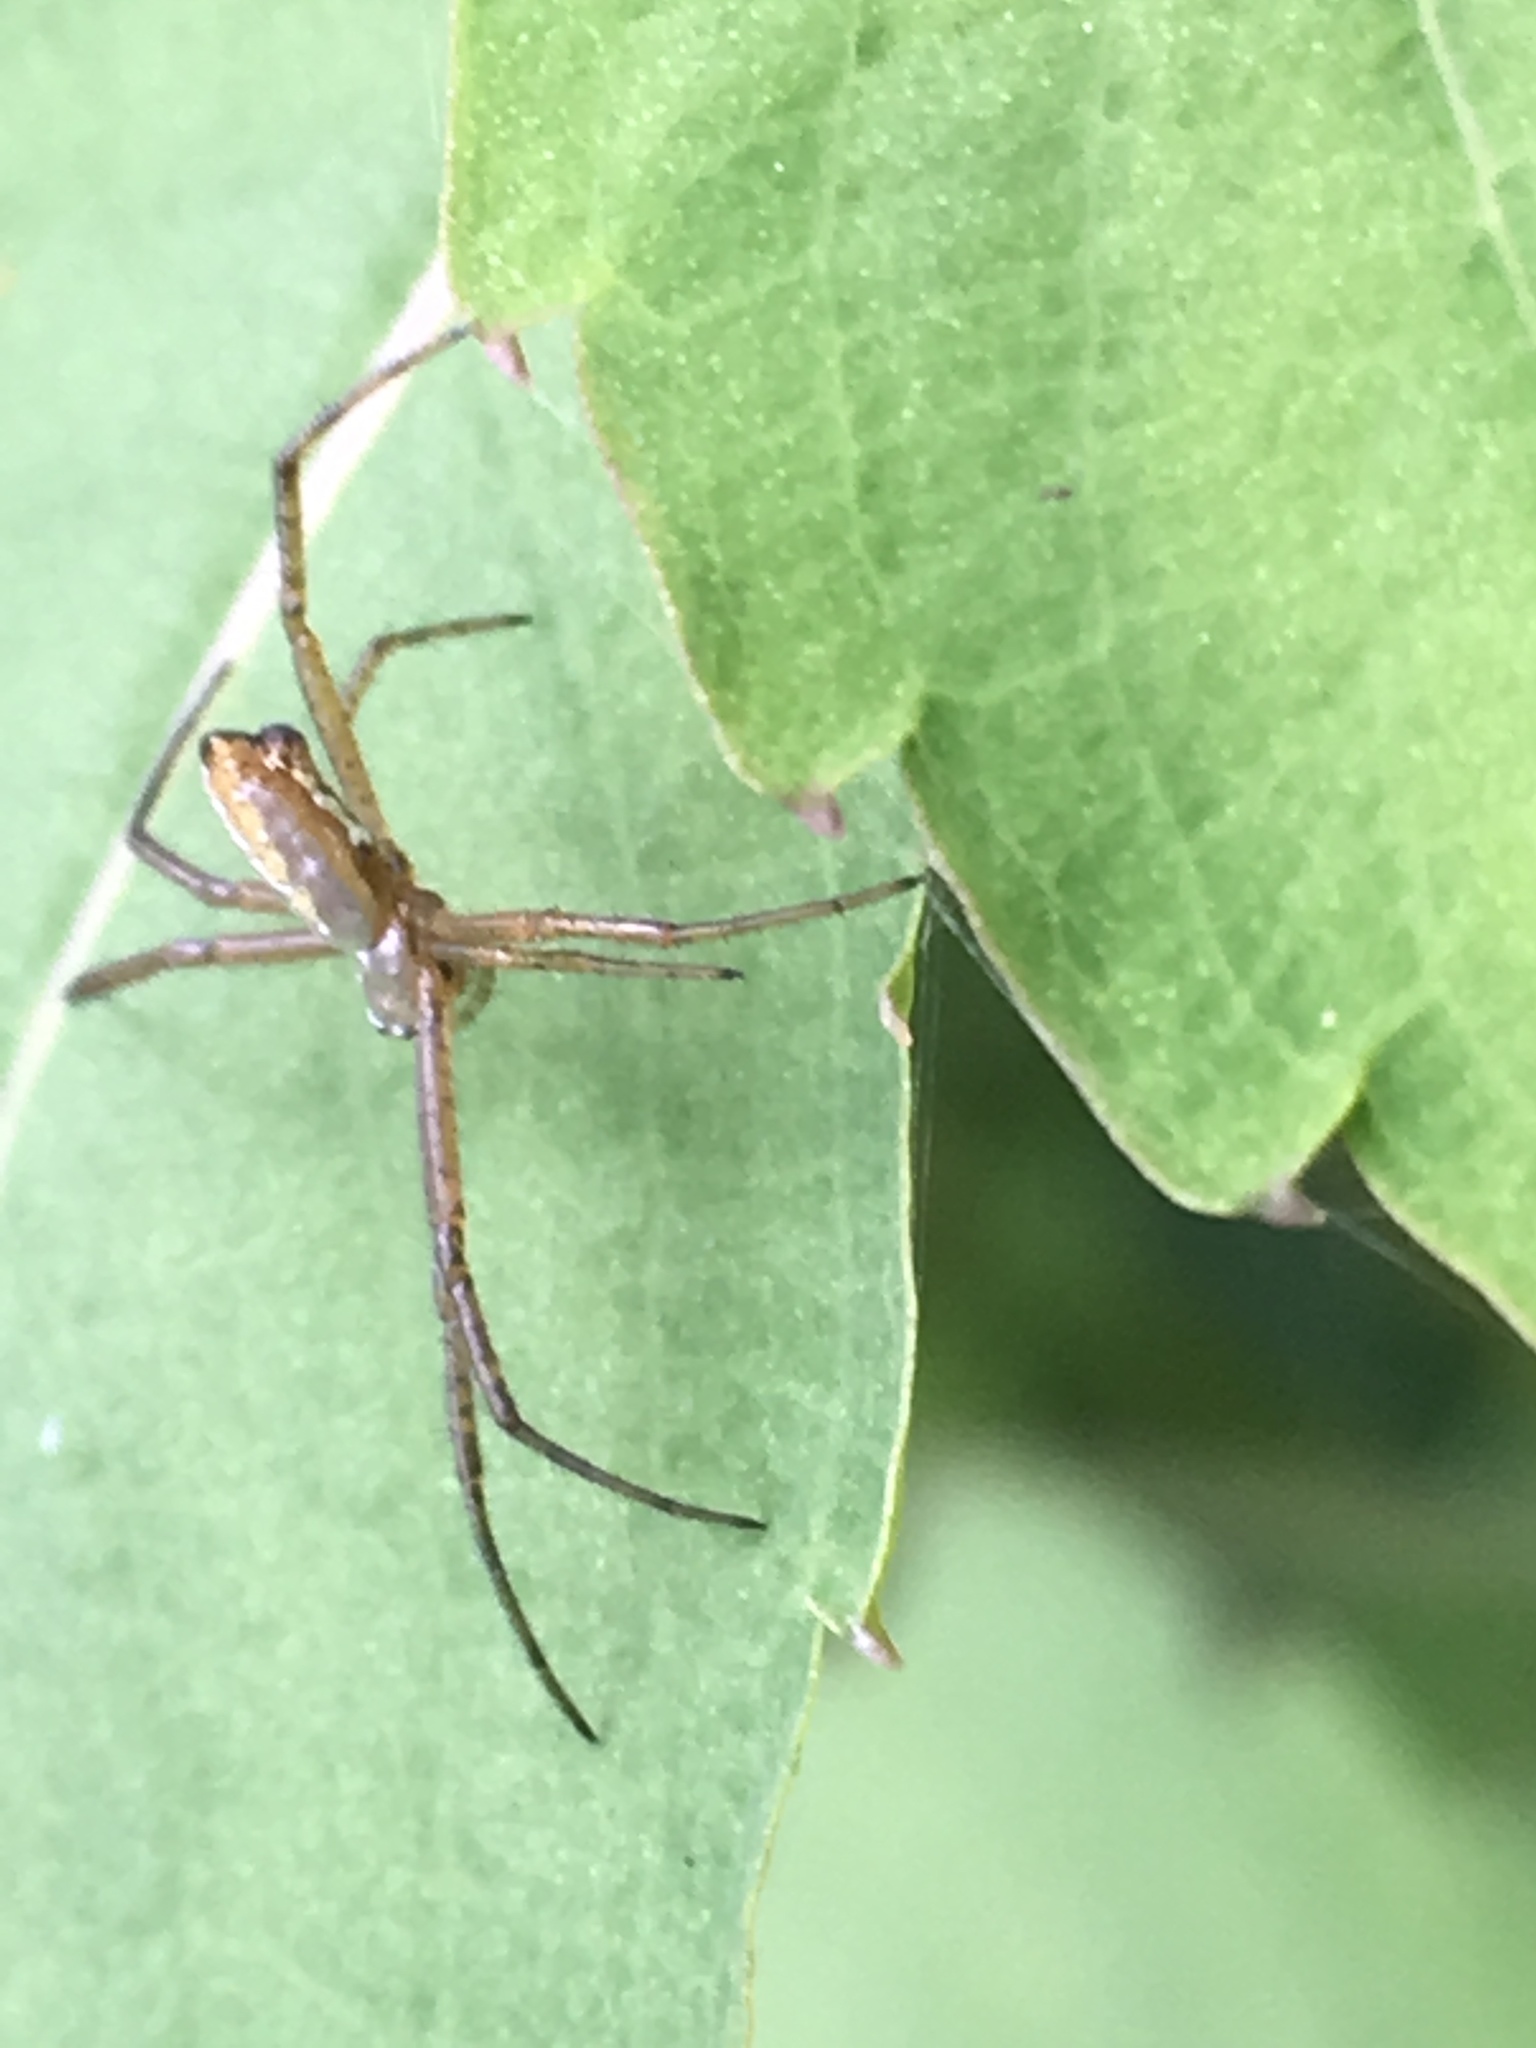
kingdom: Animalia
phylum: Arthropoda
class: Arachnida
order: Araneae
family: Araneidae
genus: Argiope
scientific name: Argiope trifasciata
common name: Banded garden spider
